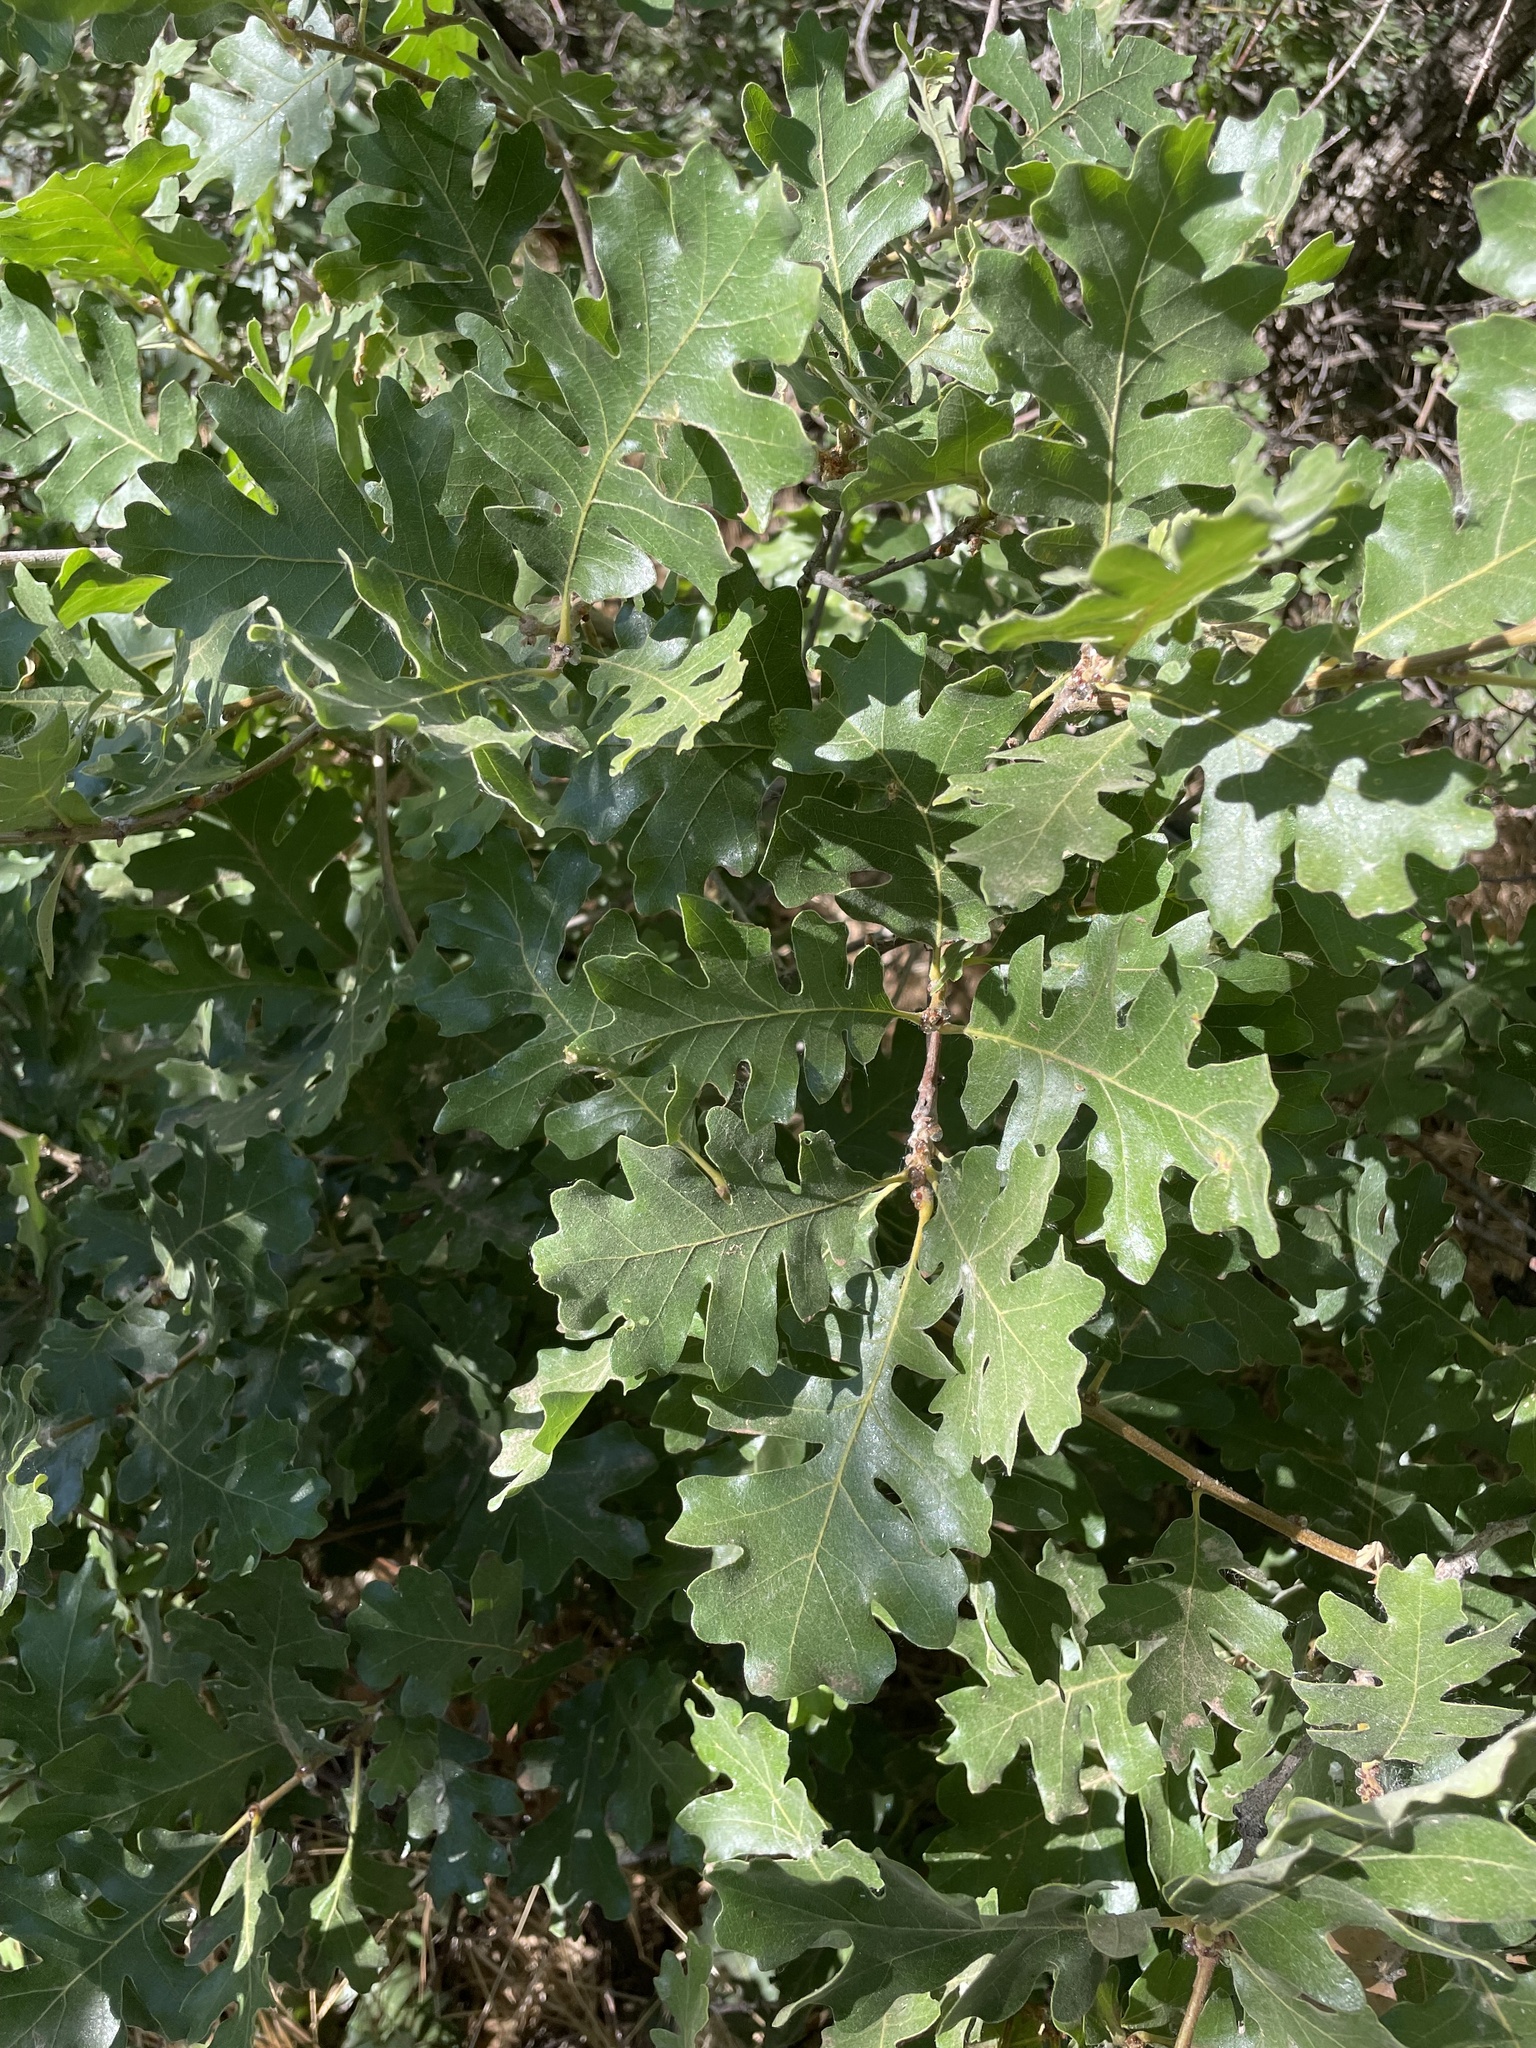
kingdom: Plantae
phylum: Tracheophyta
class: Magnoliopsida
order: Fagales
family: Fagaceae
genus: Quercus
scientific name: Quercus gambelii
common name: Gambel oak
